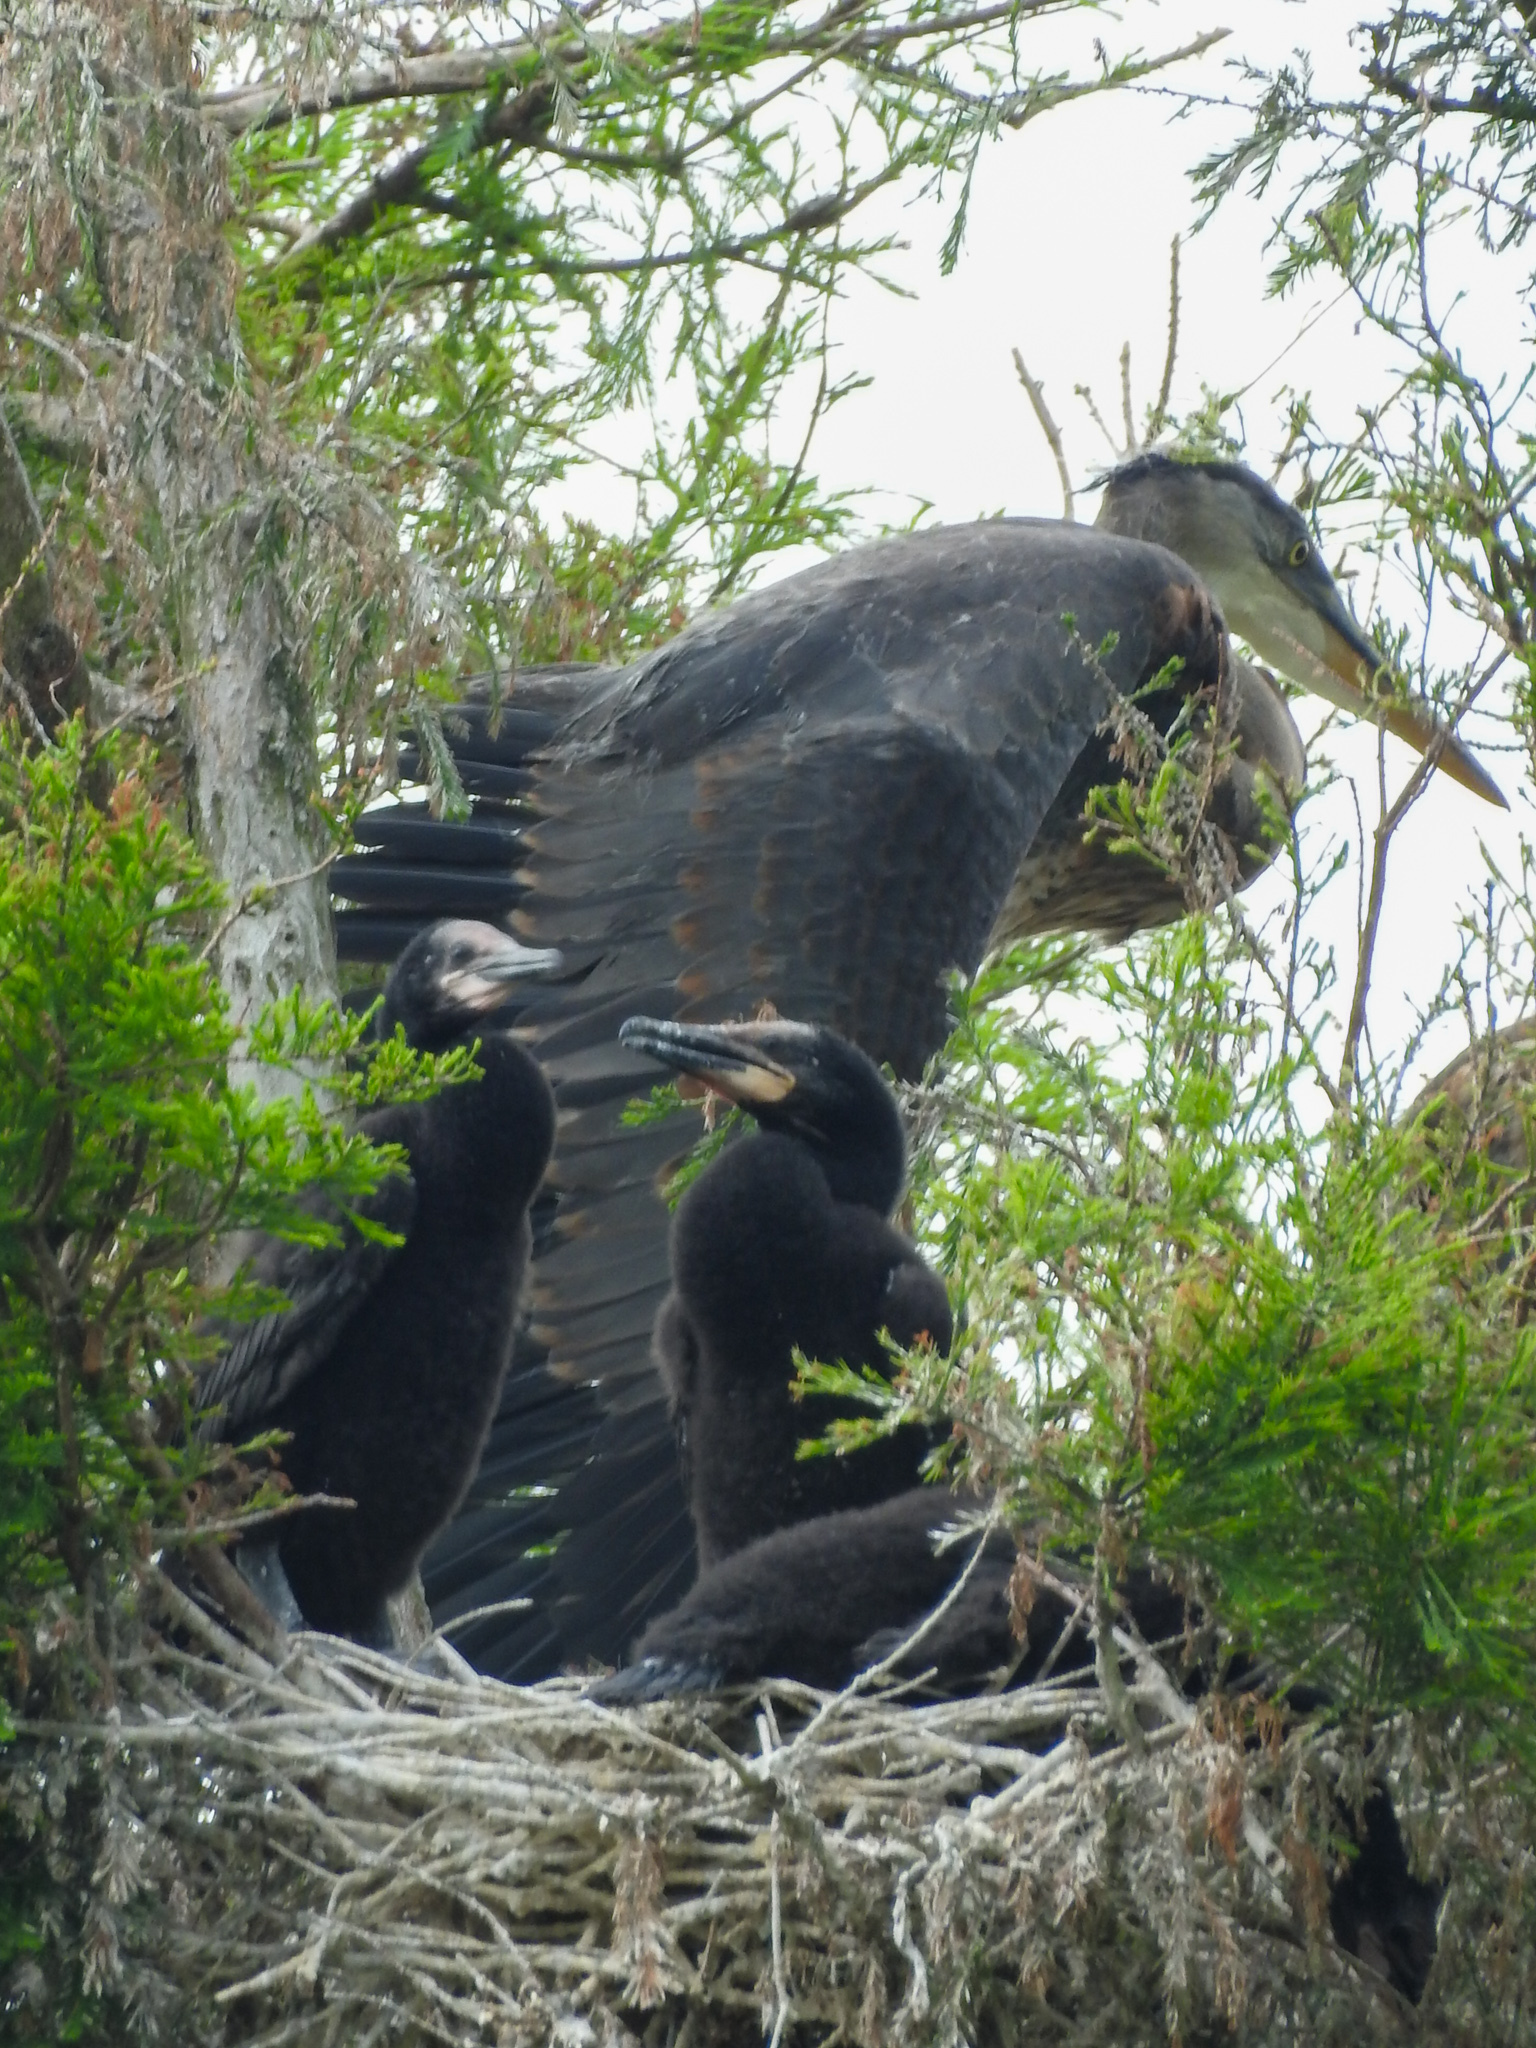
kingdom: Animalia
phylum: Chordata
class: Aves
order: Pelecaniformes
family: Ardeidae
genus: Ardea
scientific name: Ardea herodias
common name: Great blue heron
